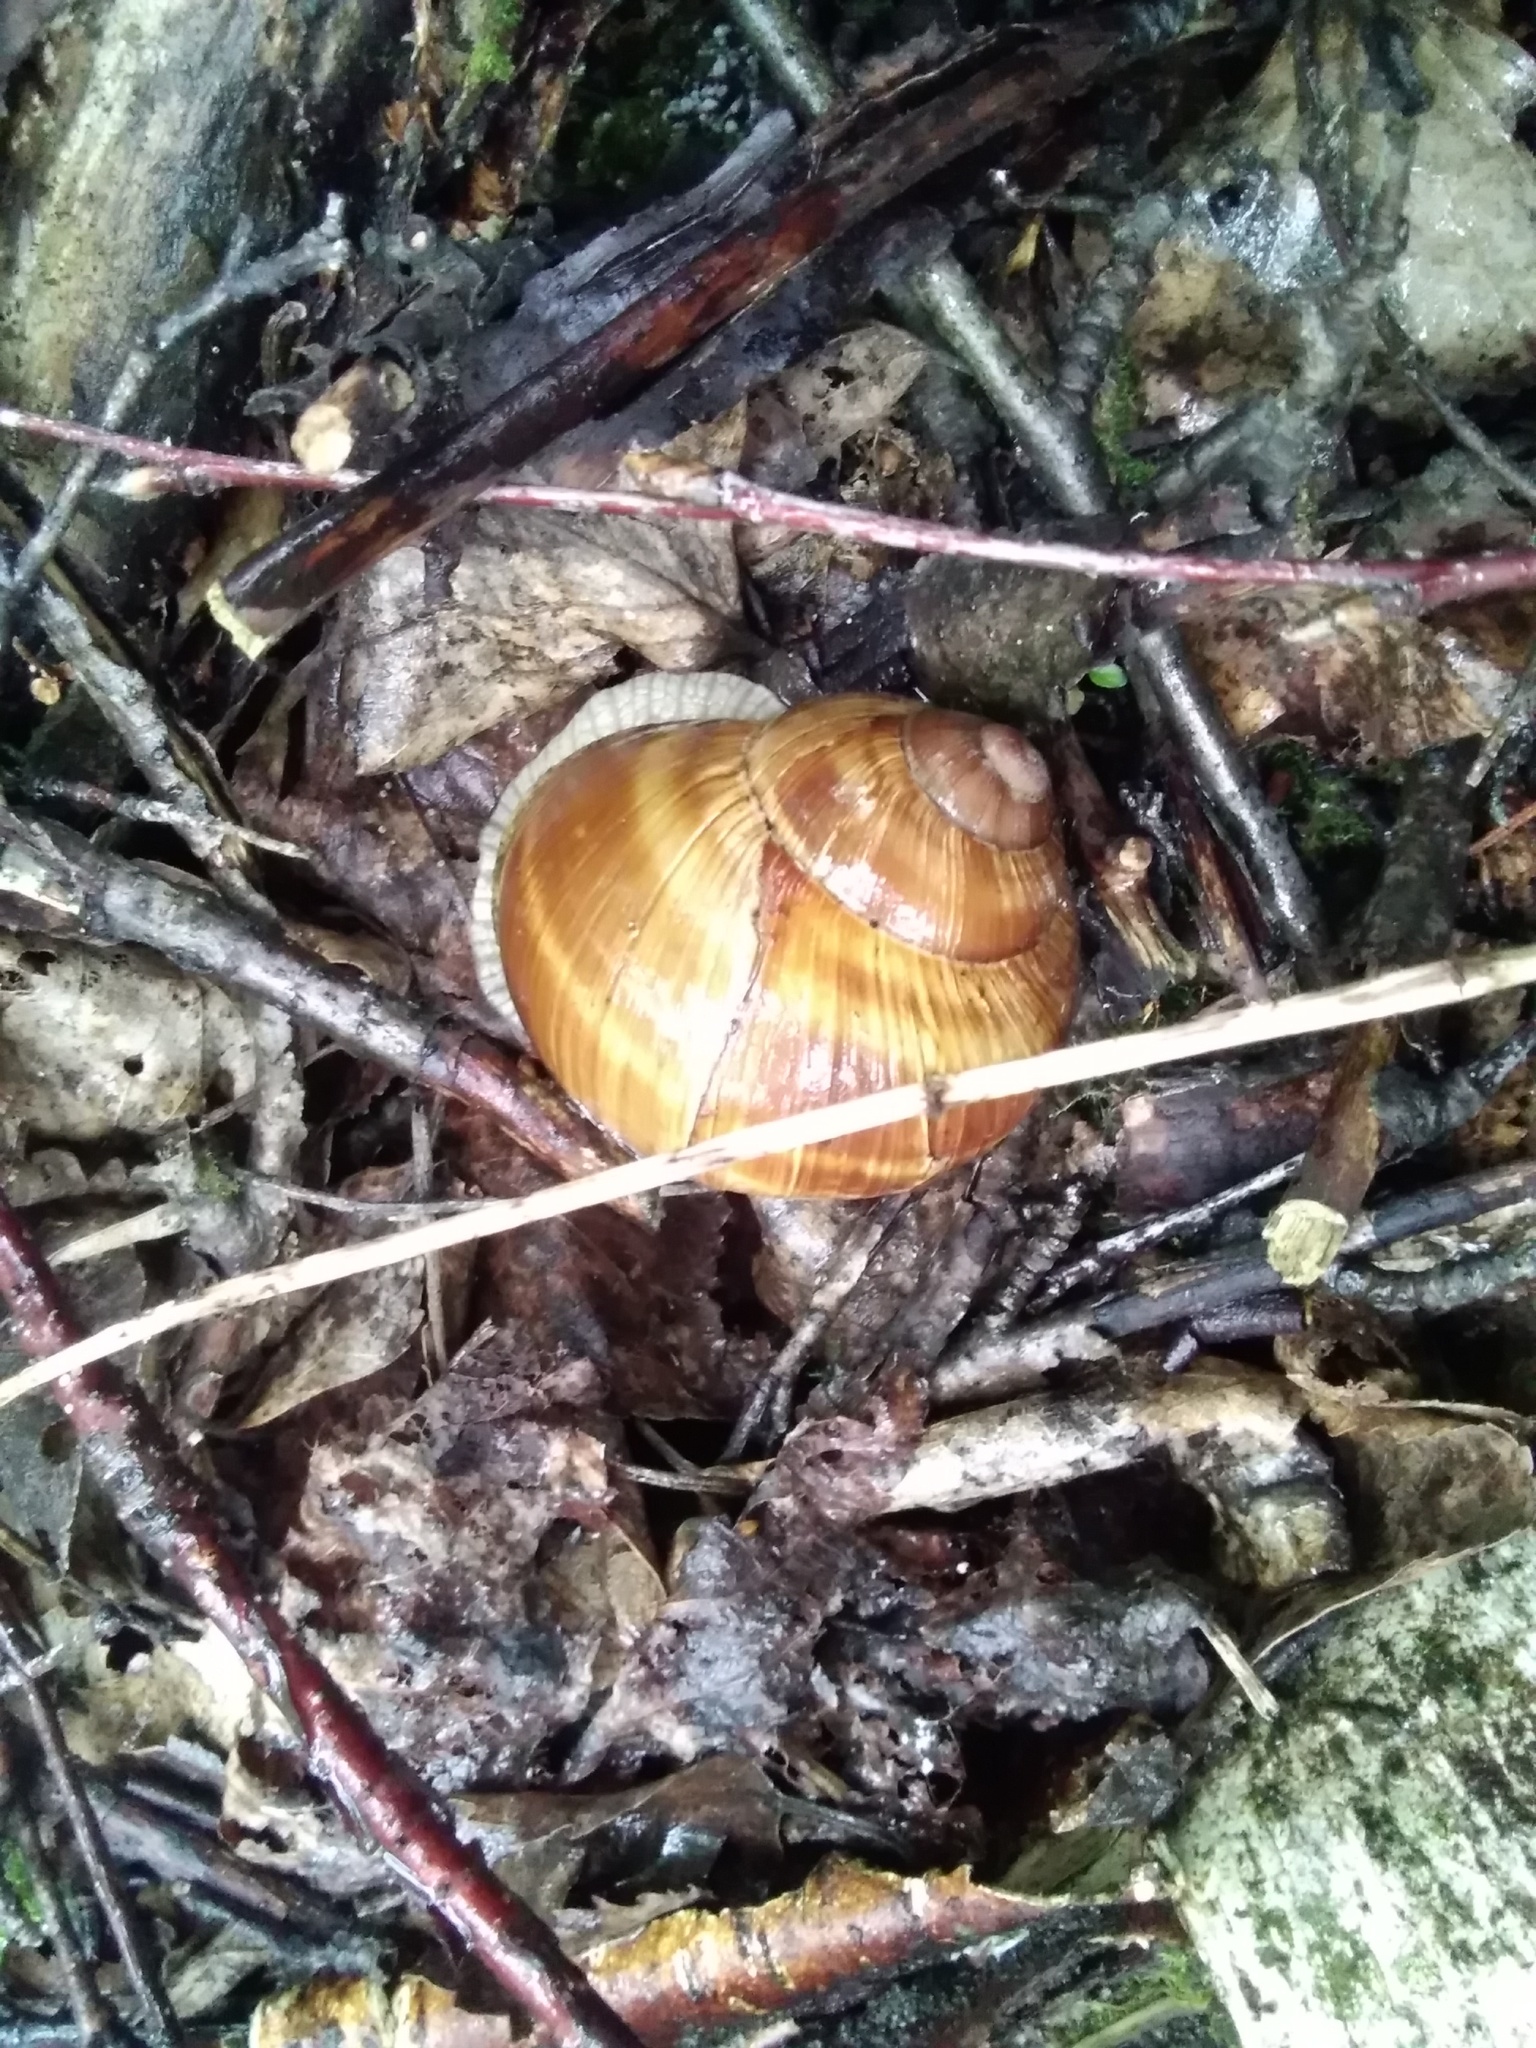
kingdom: Animalia
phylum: Mollusca
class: Gastropoda
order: Stylommatophora
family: Helicidae
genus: Helix
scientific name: Helix pomatia
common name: Roman snail
